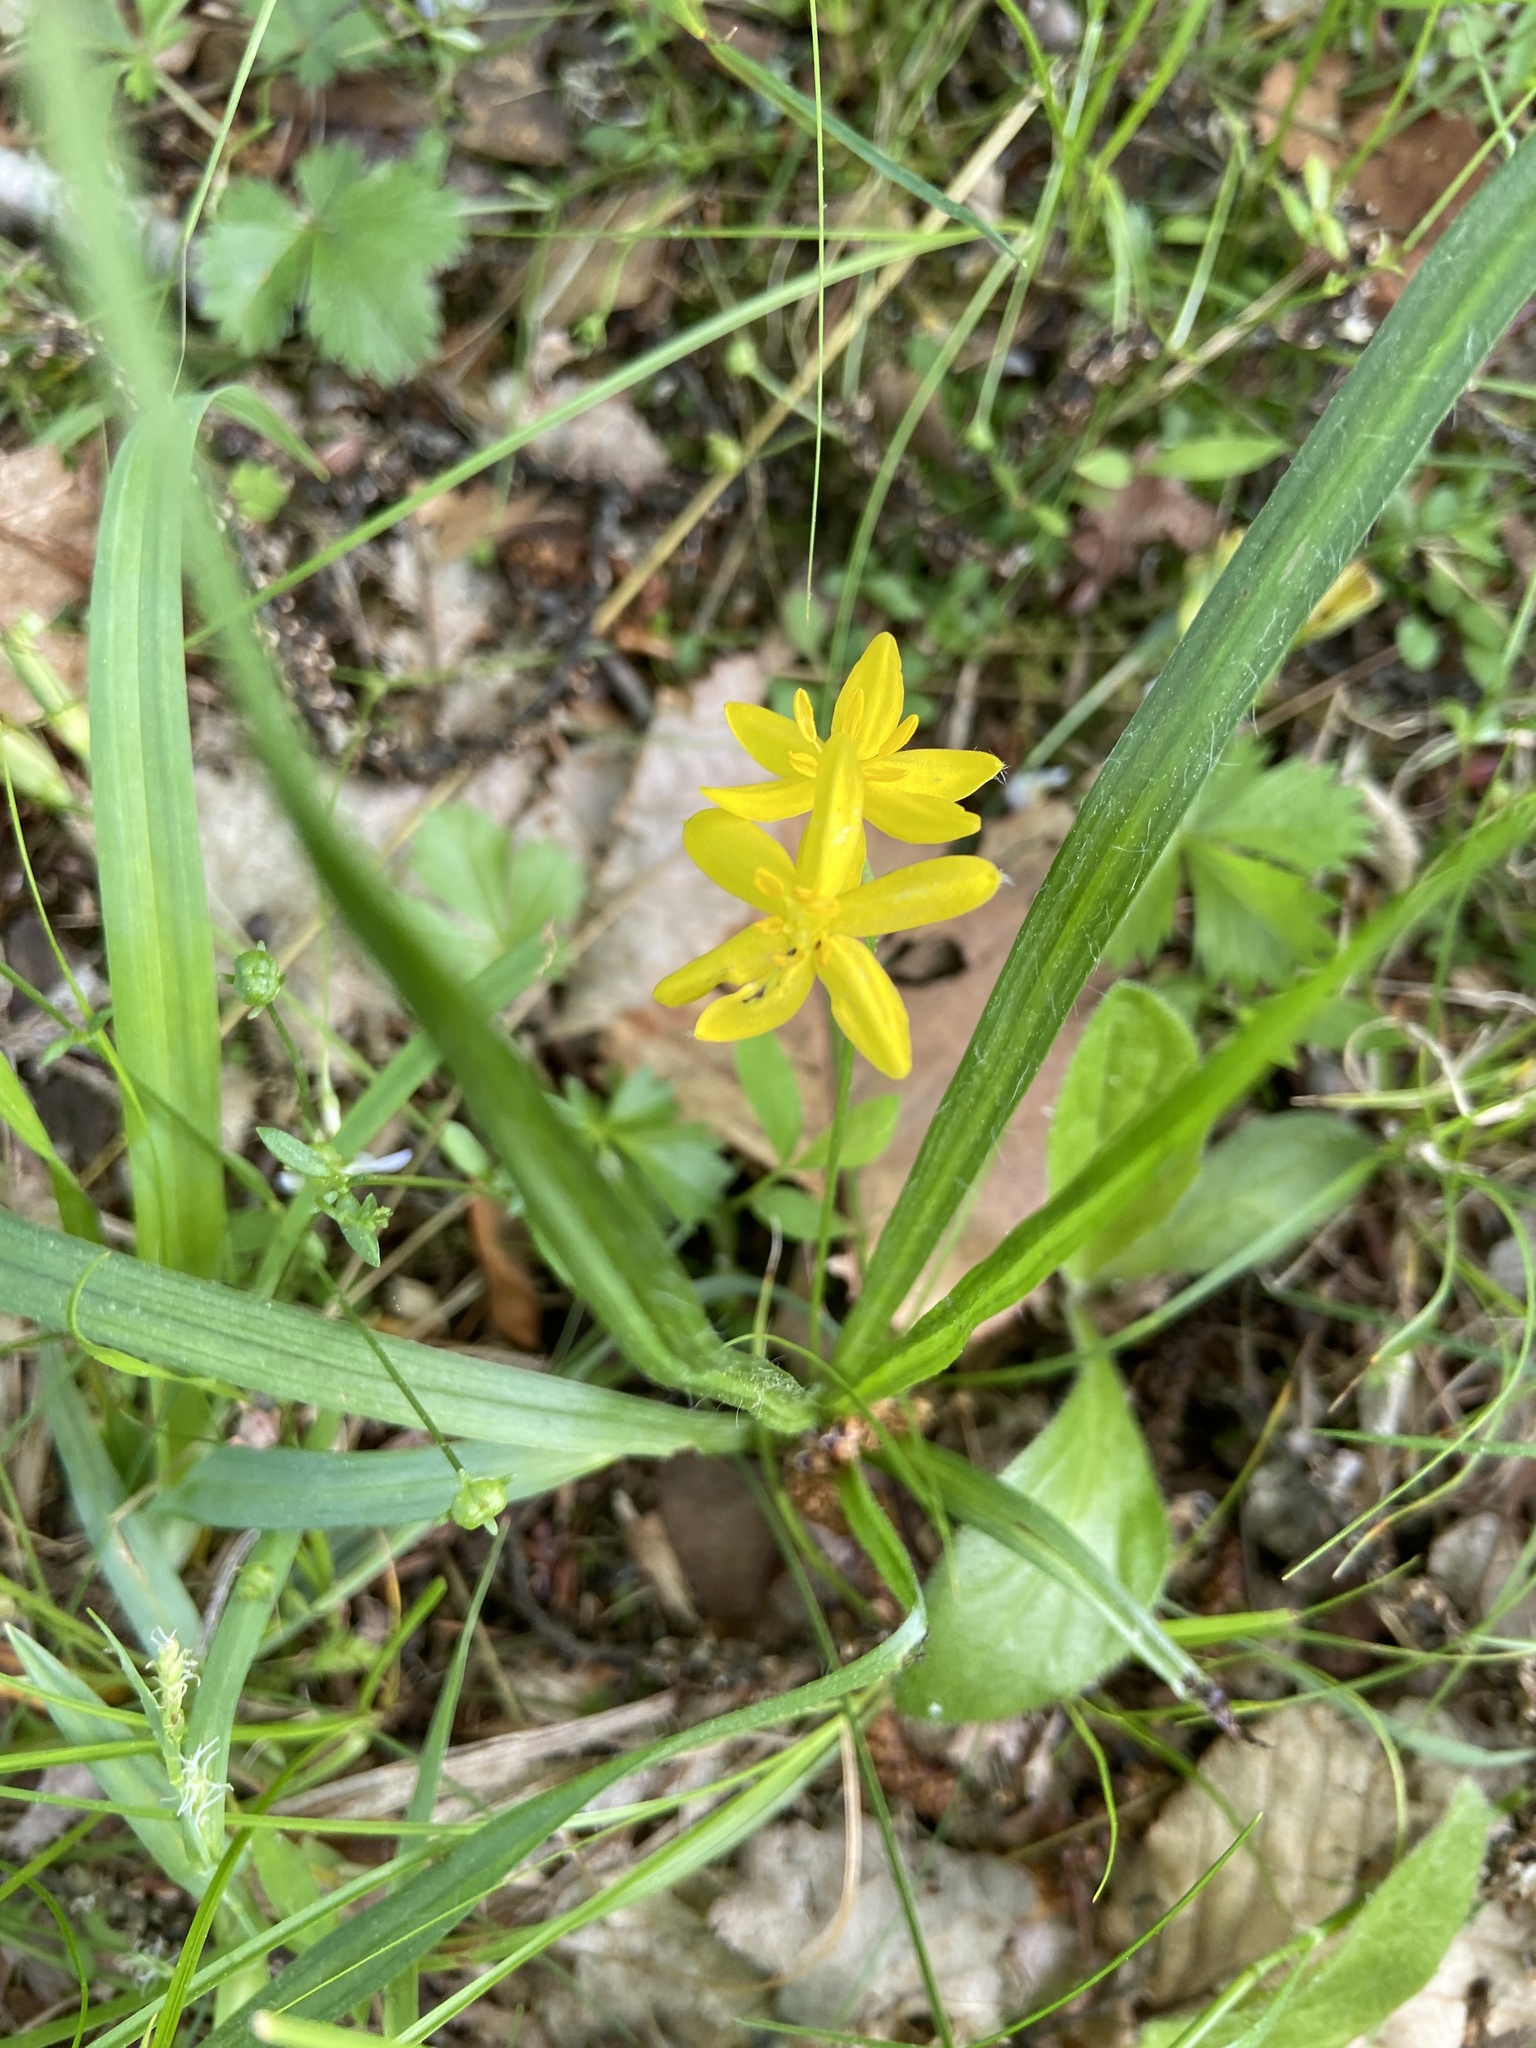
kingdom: Plantae
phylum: Tracheophyta
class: Liliopsida
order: Asparagales
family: Hypoxidaceae
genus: Hypoxis
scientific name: Hypoxis hirsuta
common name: Common goldstar
